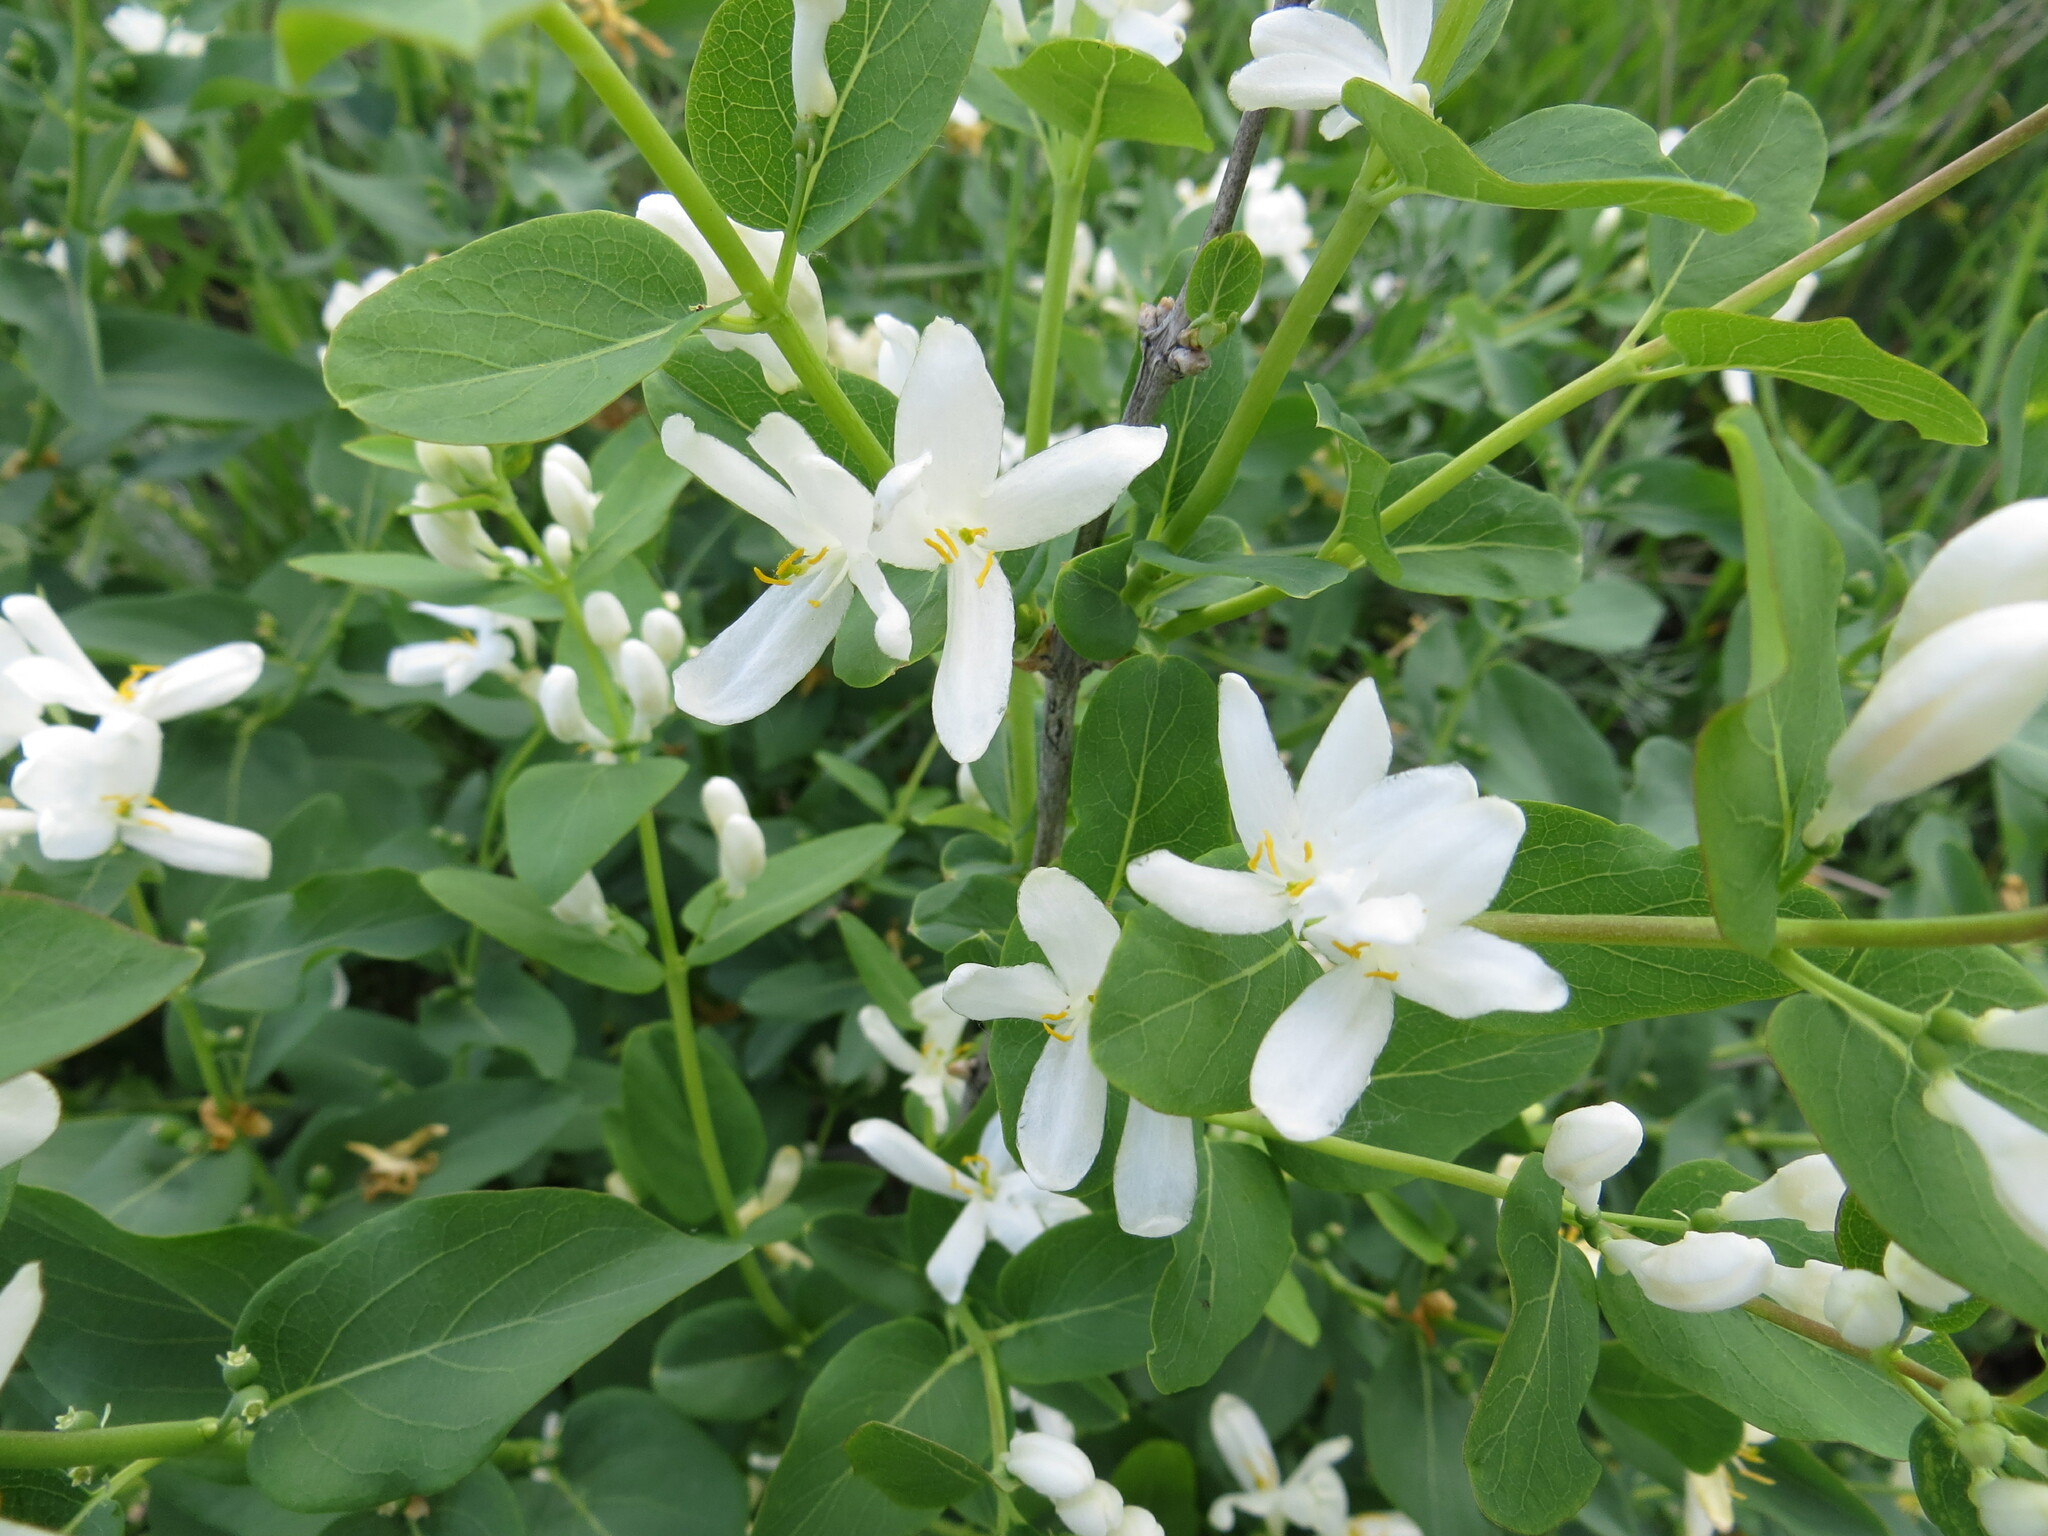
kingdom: Plantae
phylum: Tracheophyta
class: Magnoliopsida
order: Dipsacales
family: Caprifoliaceae
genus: Lonicera
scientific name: Lonicera tatarica
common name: Tatarian honeysuckle
